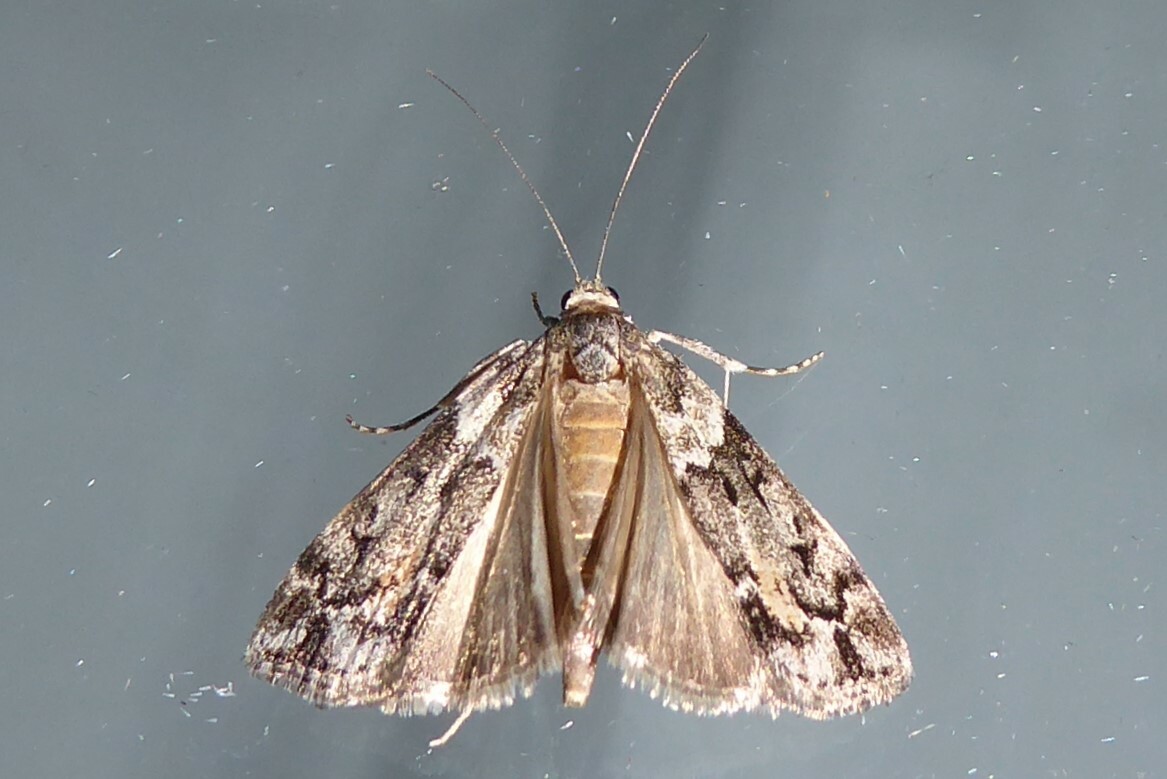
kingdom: Animalia
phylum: Arthropoda
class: Insecta
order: Lepidoptera
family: Crambidae
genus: Eudonia
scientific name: Eudonia submarginalis
